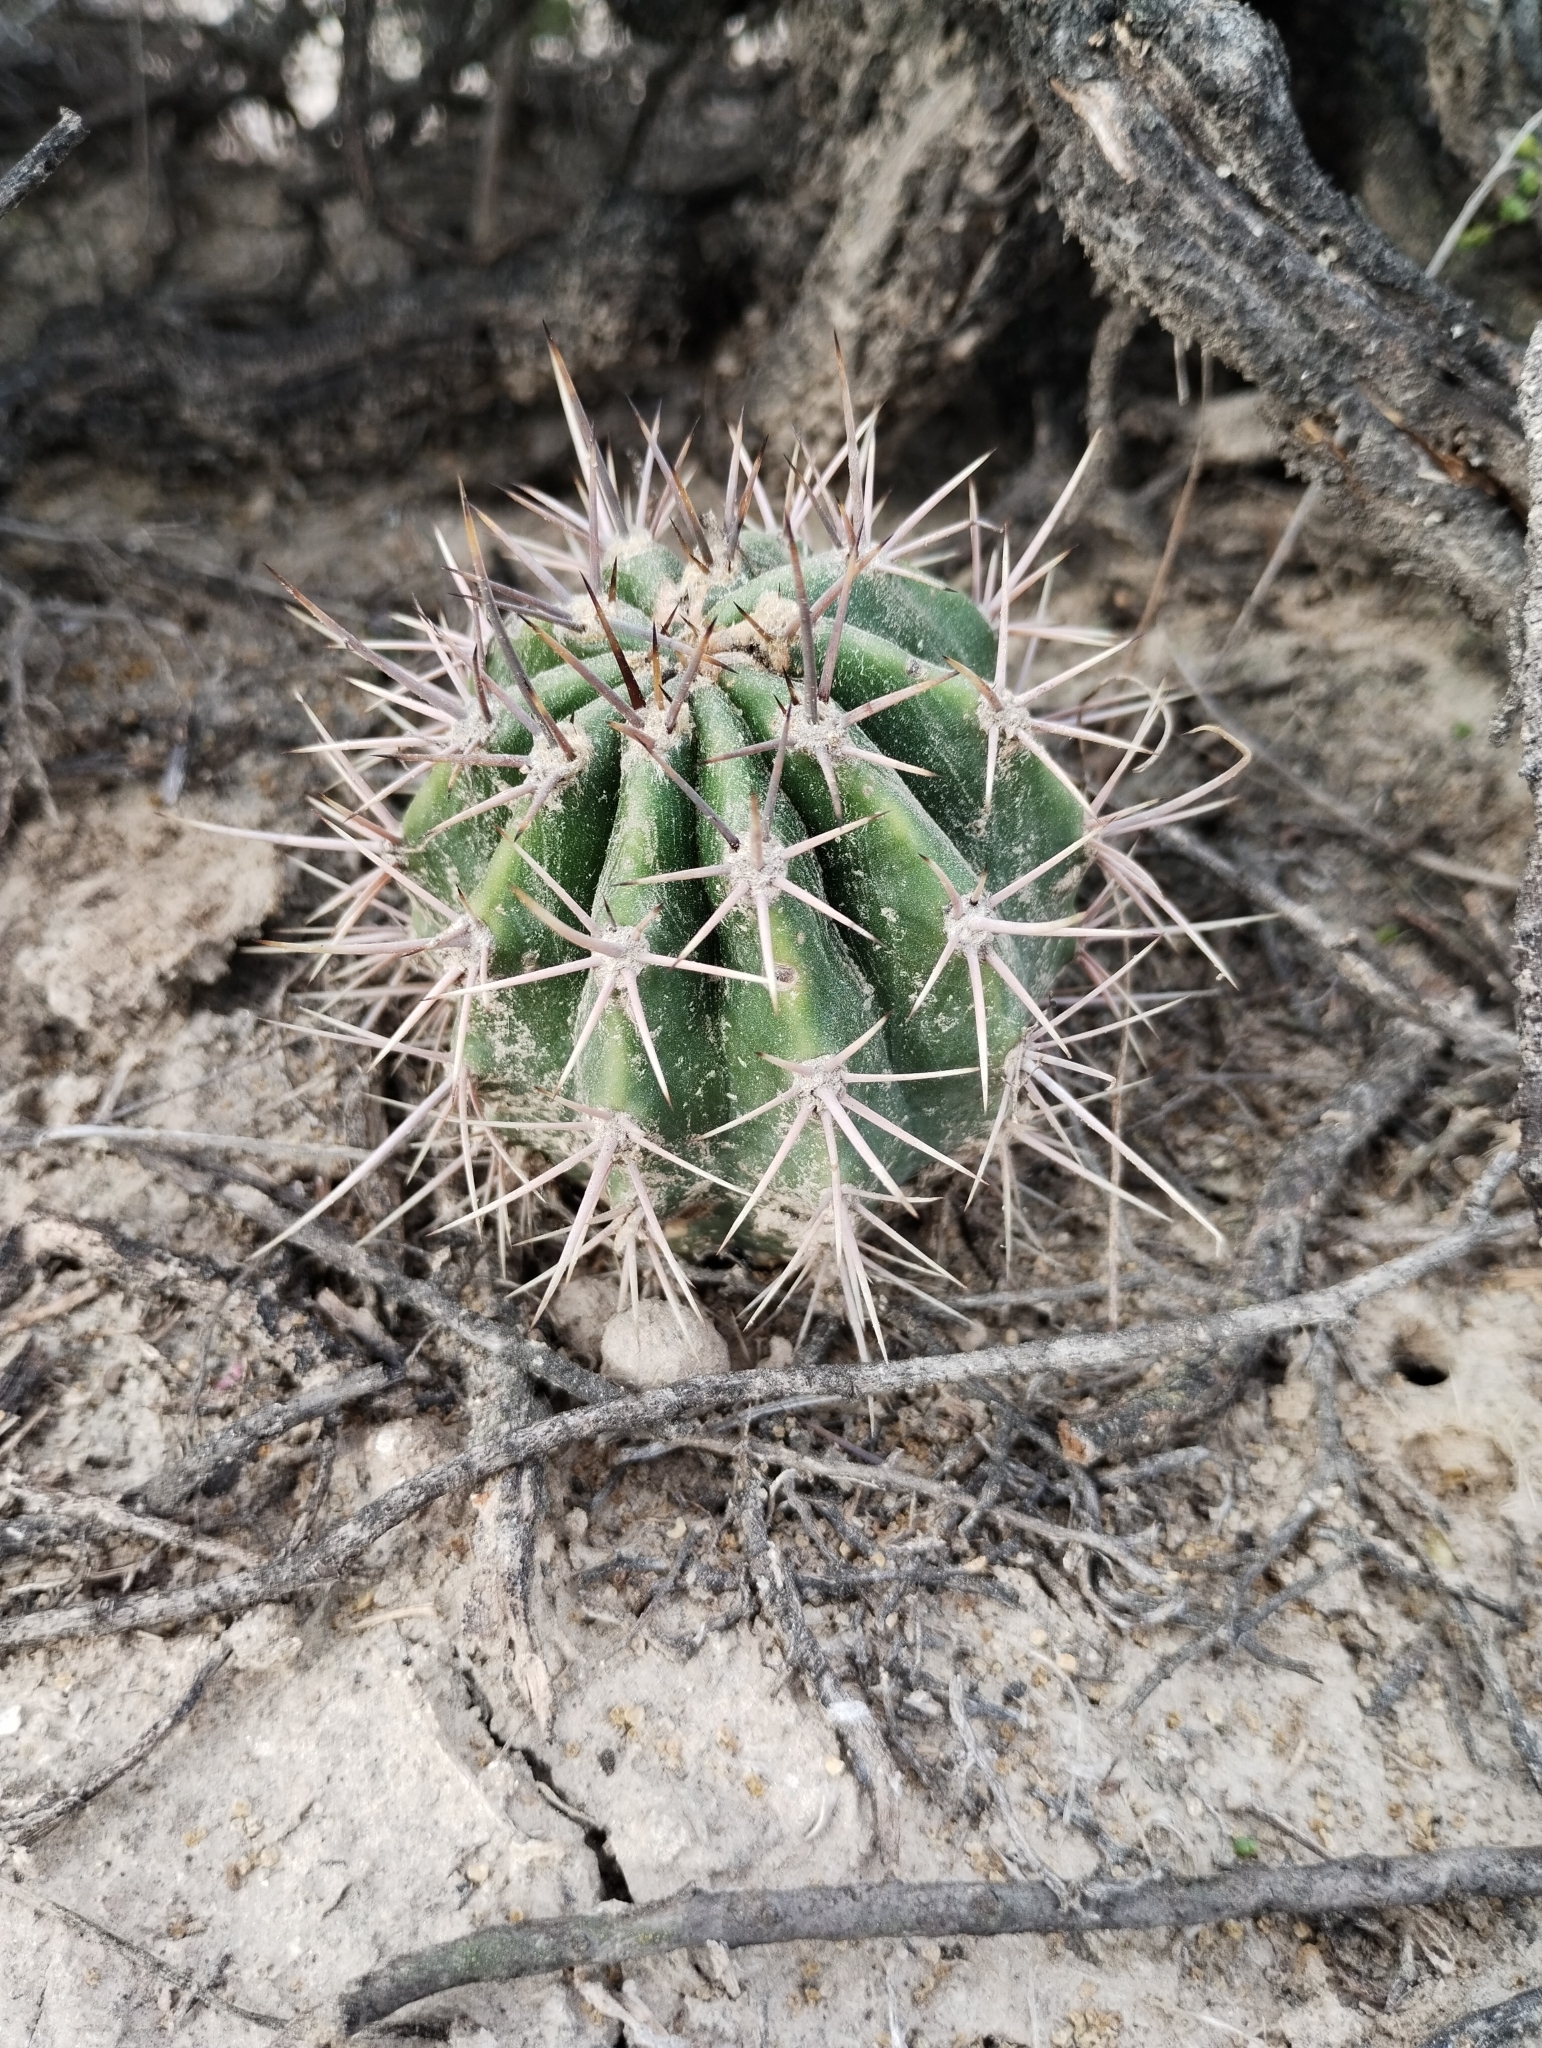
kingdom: Plantae
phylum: Tracheophyta
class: Magnoliopsida
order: Caryophyllales
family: Cactaceae
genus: Acanthocalycium
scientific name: Acanthocalycium leucanthum
